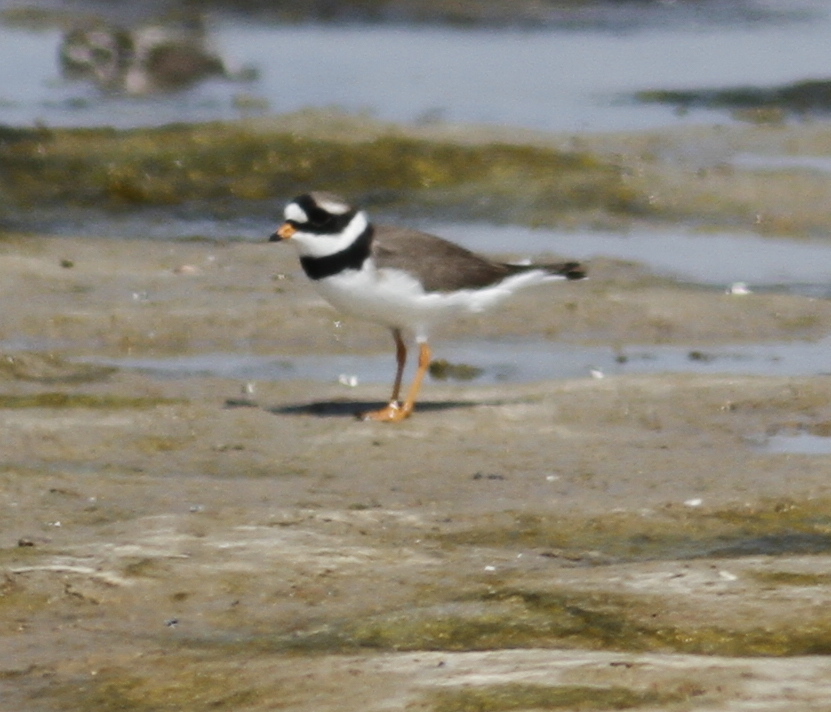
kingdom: Animalia
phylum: Chordata
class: Aves
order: Charadriiformes
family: Charadriidae
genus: Charadrius
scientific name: Charadrius hiaticula
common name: Common ringed plover
